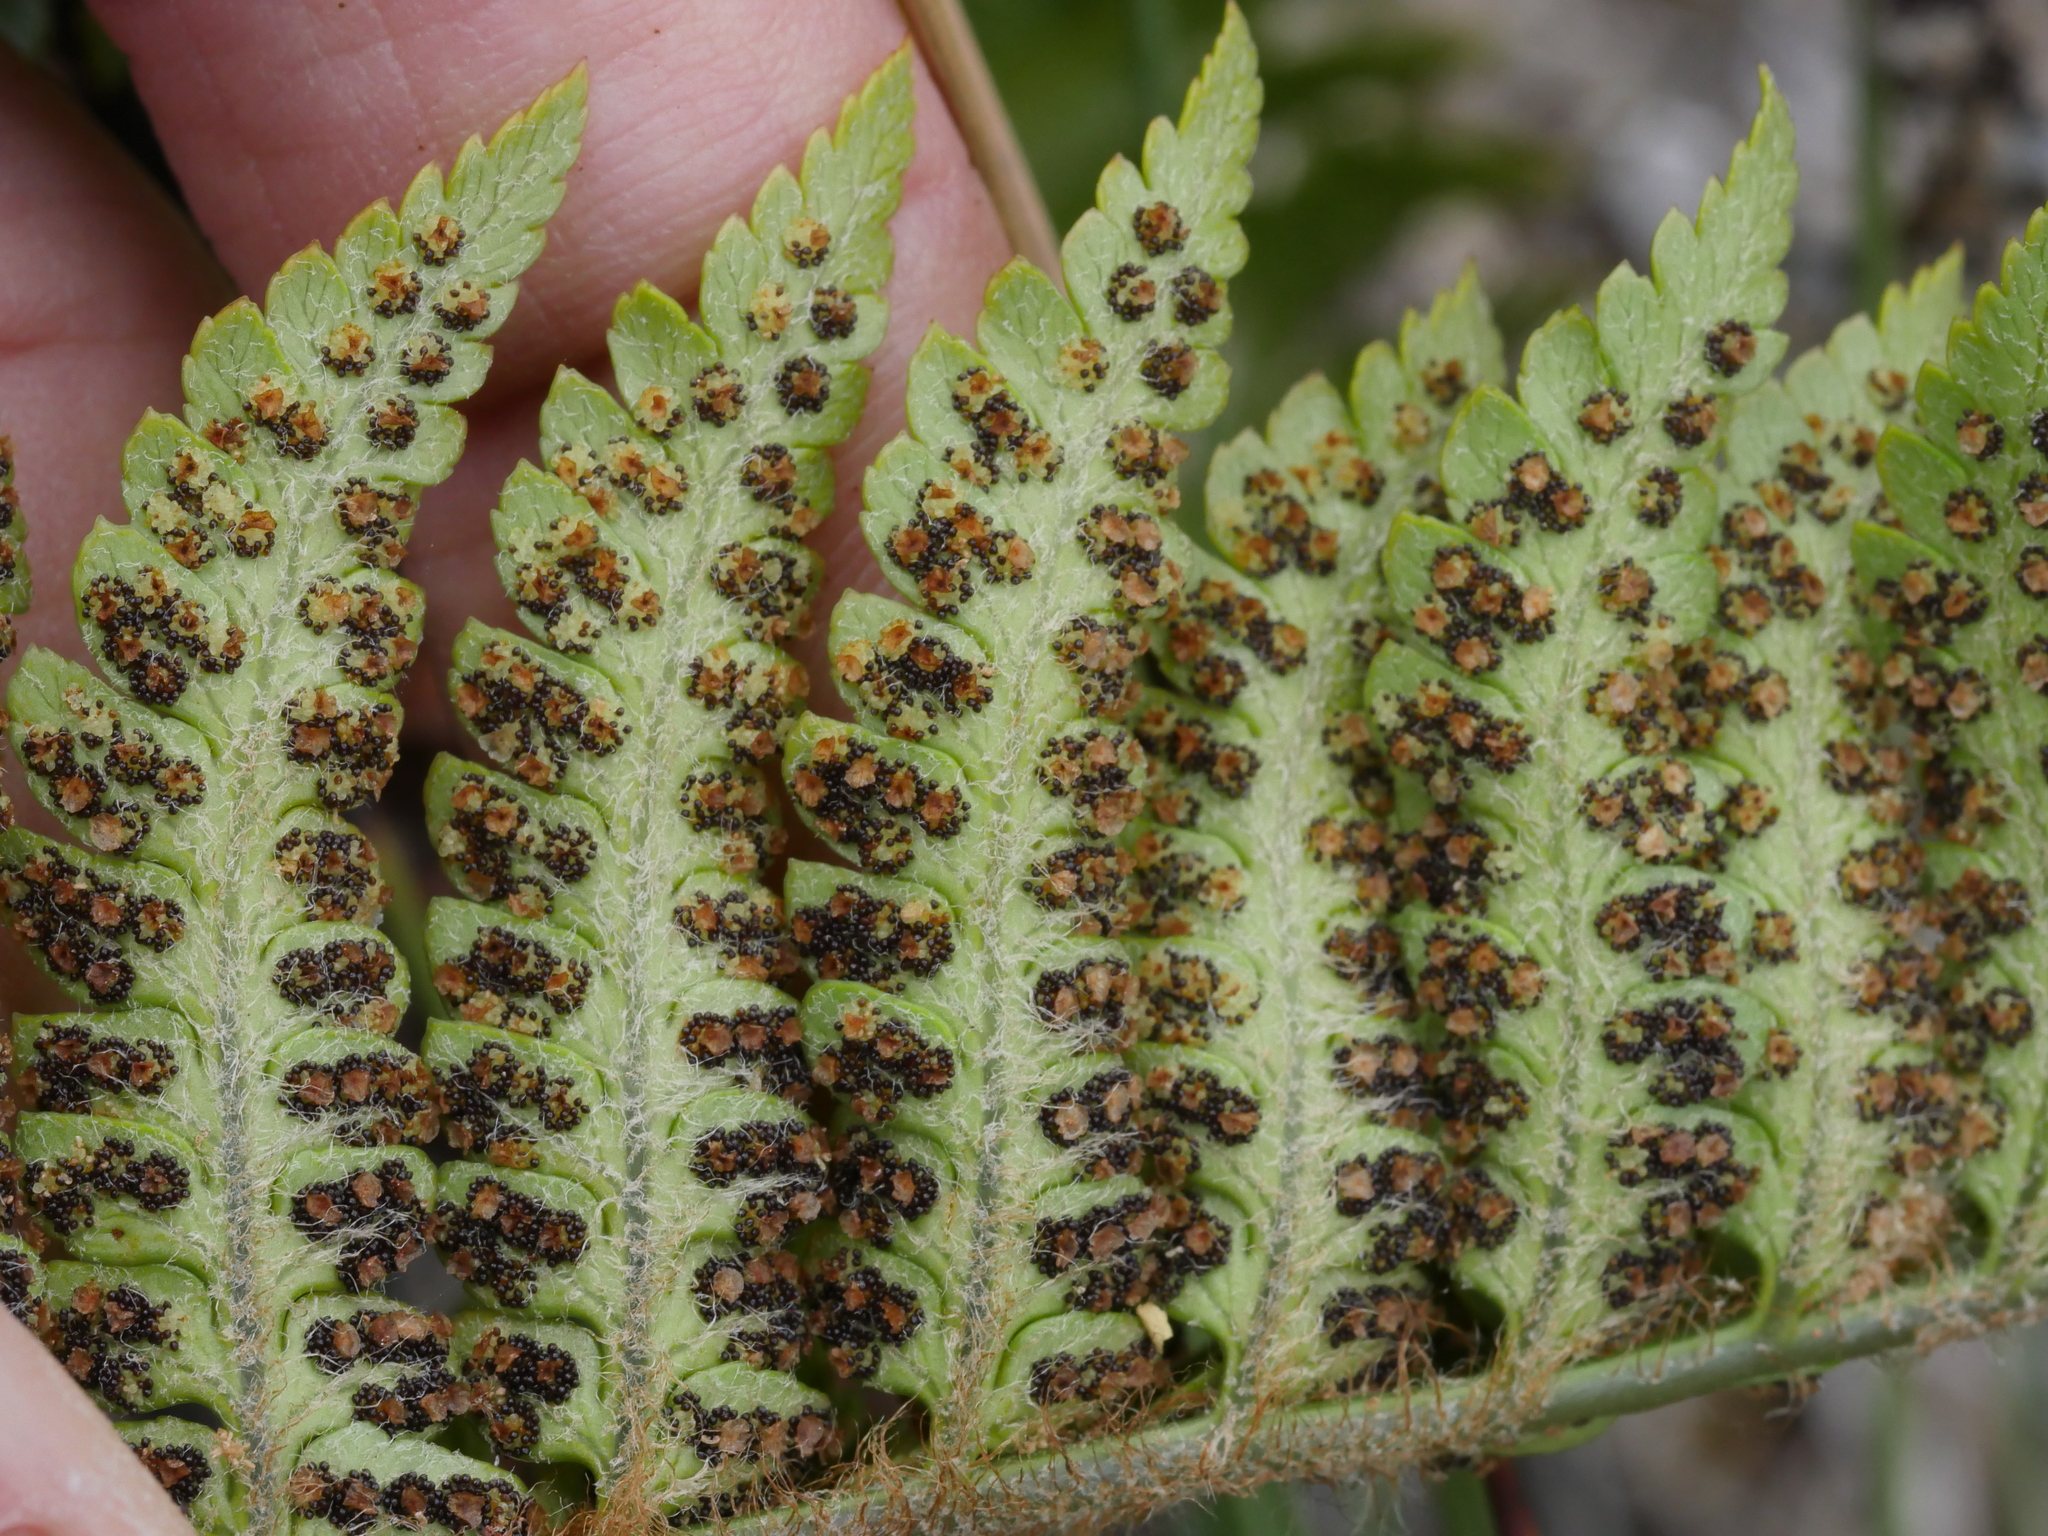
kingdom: Plantae
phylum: Tracheophyta
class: Polypodiopsida
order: Polypodiales
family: Dryopteridaceae
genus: Polystichum
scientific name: Polystichum wawranum
